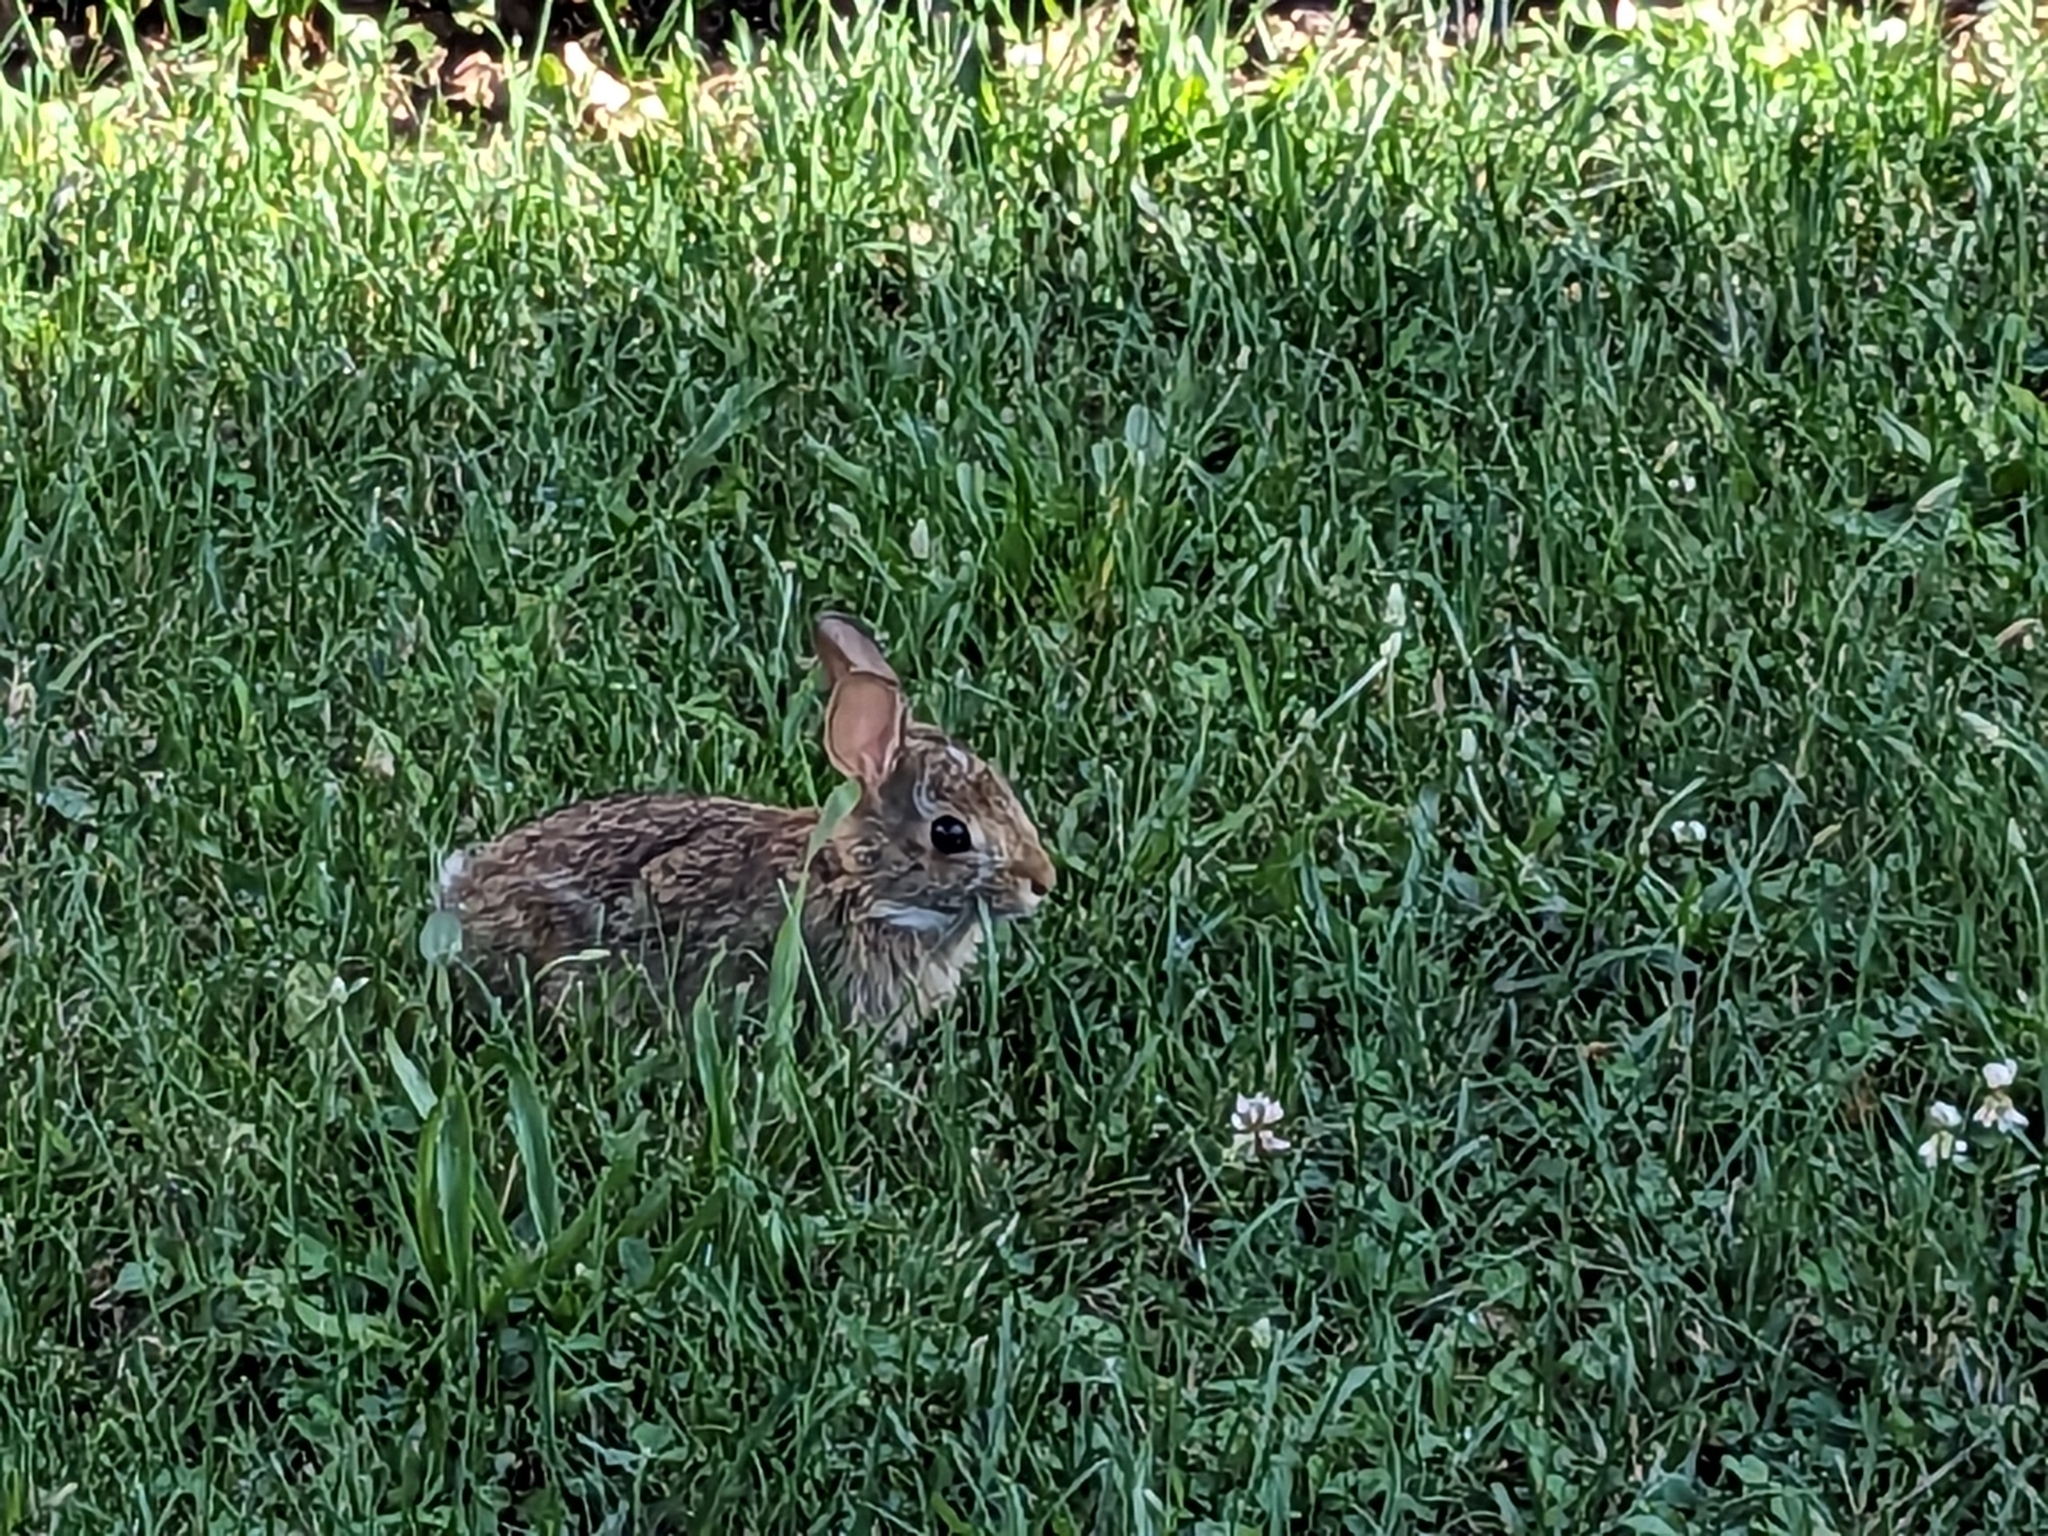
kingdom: Animalia
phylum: Chordata
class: Mammalia
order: Lagomorpha
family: Leporidae
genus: Sylvilagus
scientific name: Sylvilagus floridanus
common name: Eastern cottontail
